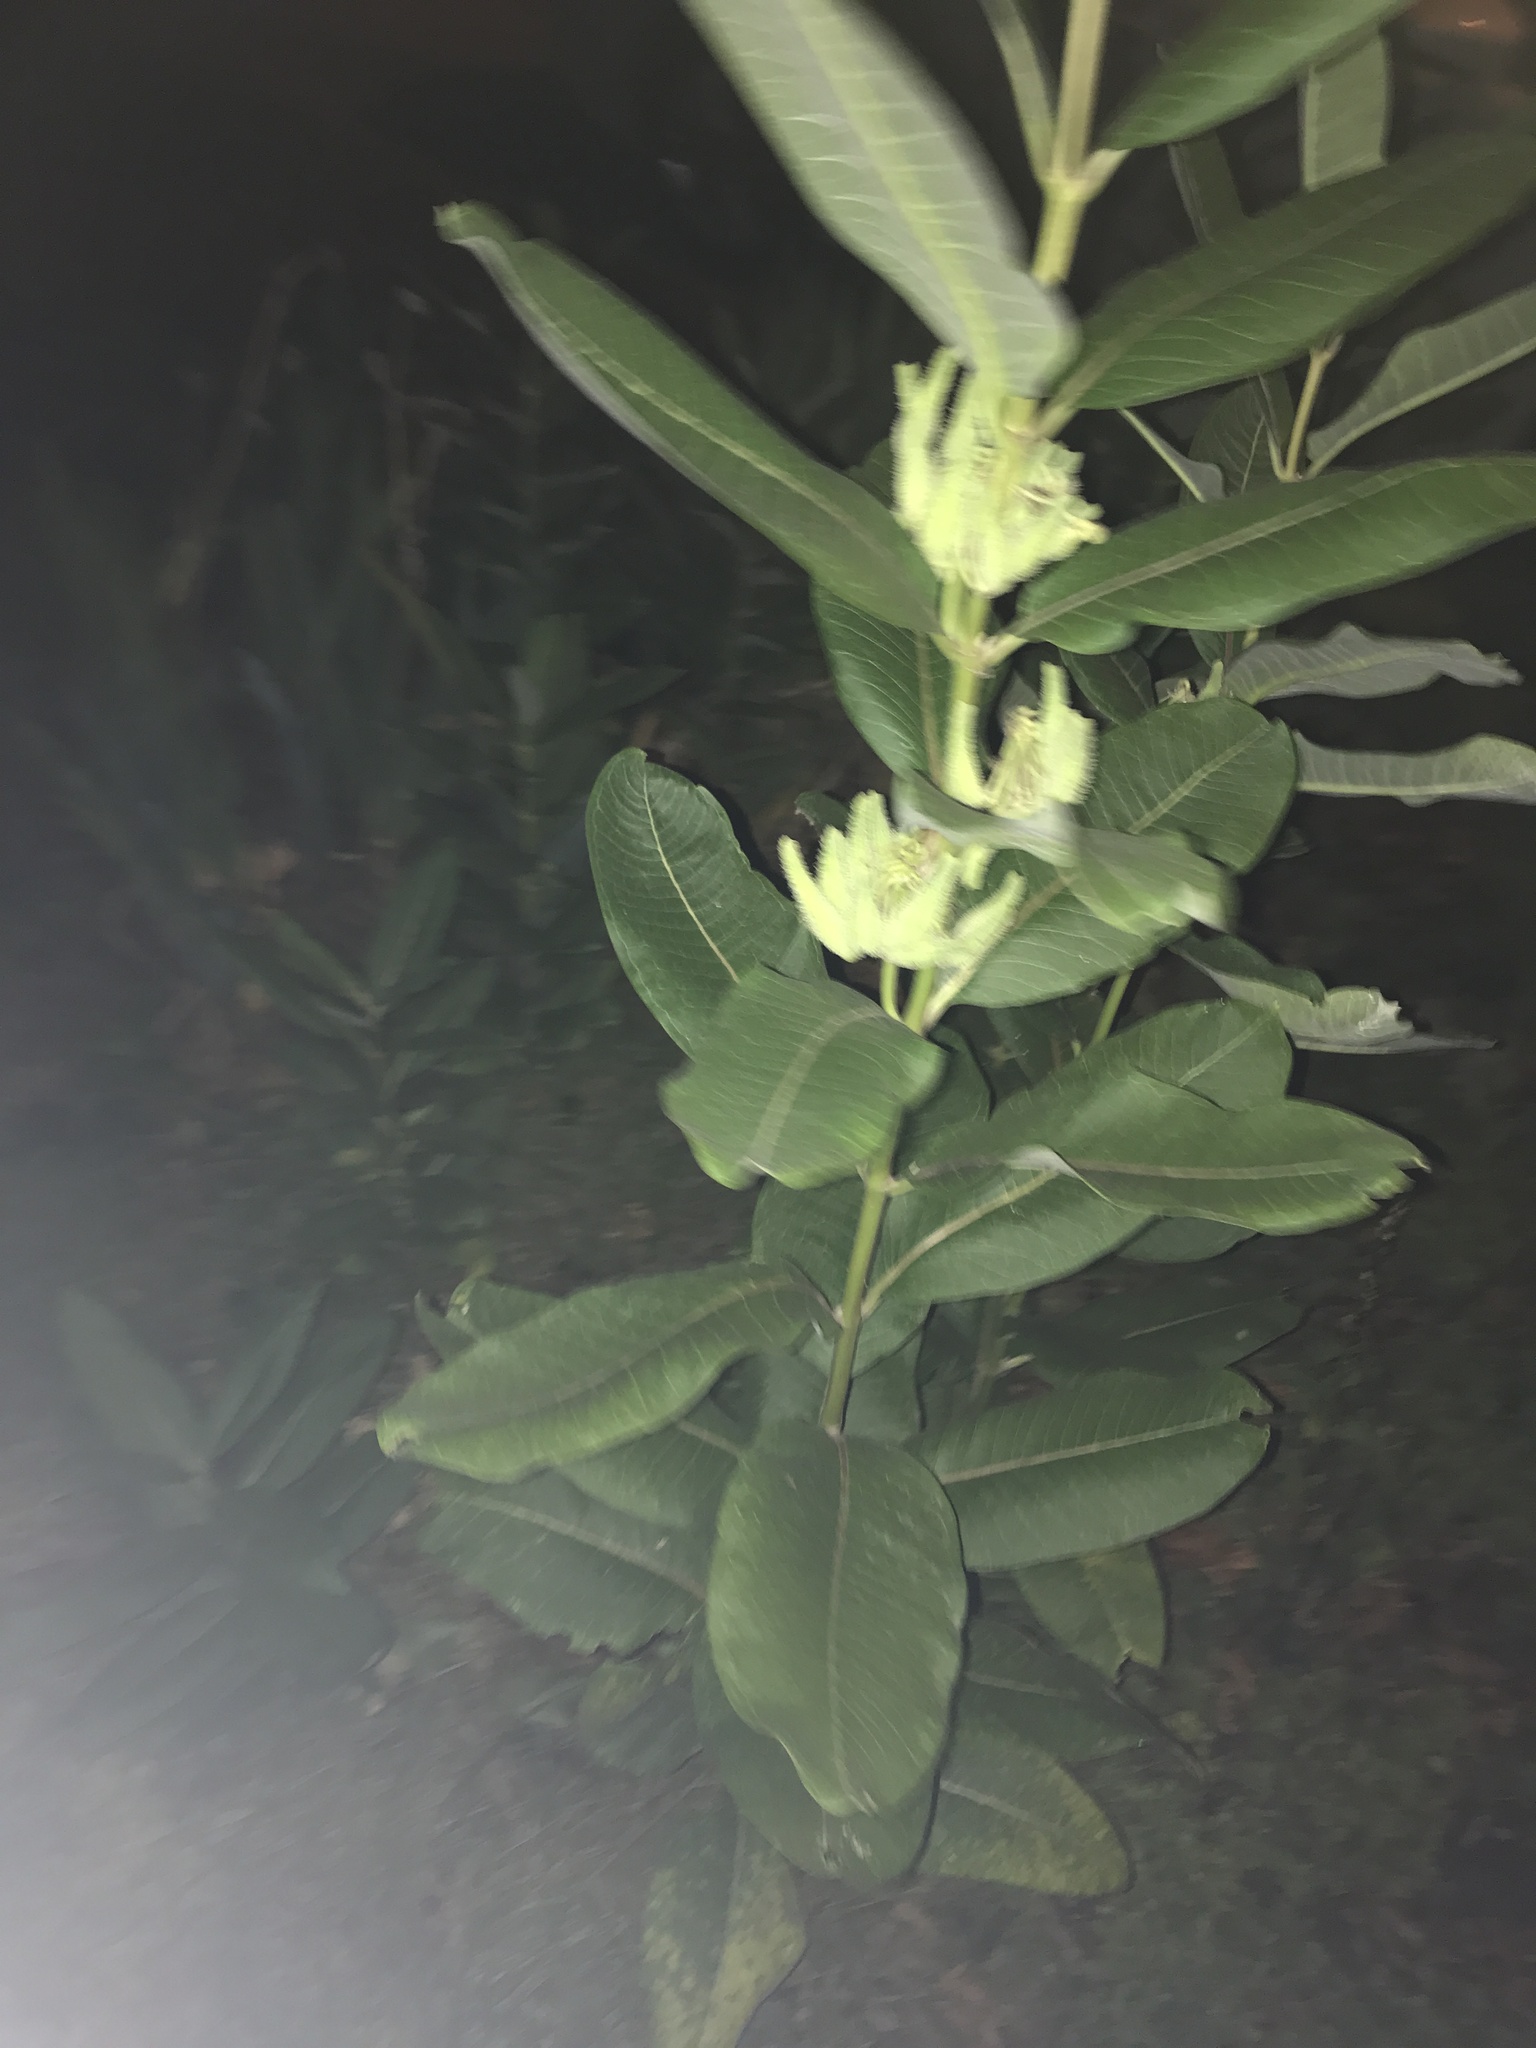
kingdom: Plantae
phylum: Tracheophyta
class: Magnoliopsida
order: Gentianales
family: Apocynaceae
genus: Asclepias
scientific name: Asclepias syriaca
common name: Common milkweed
